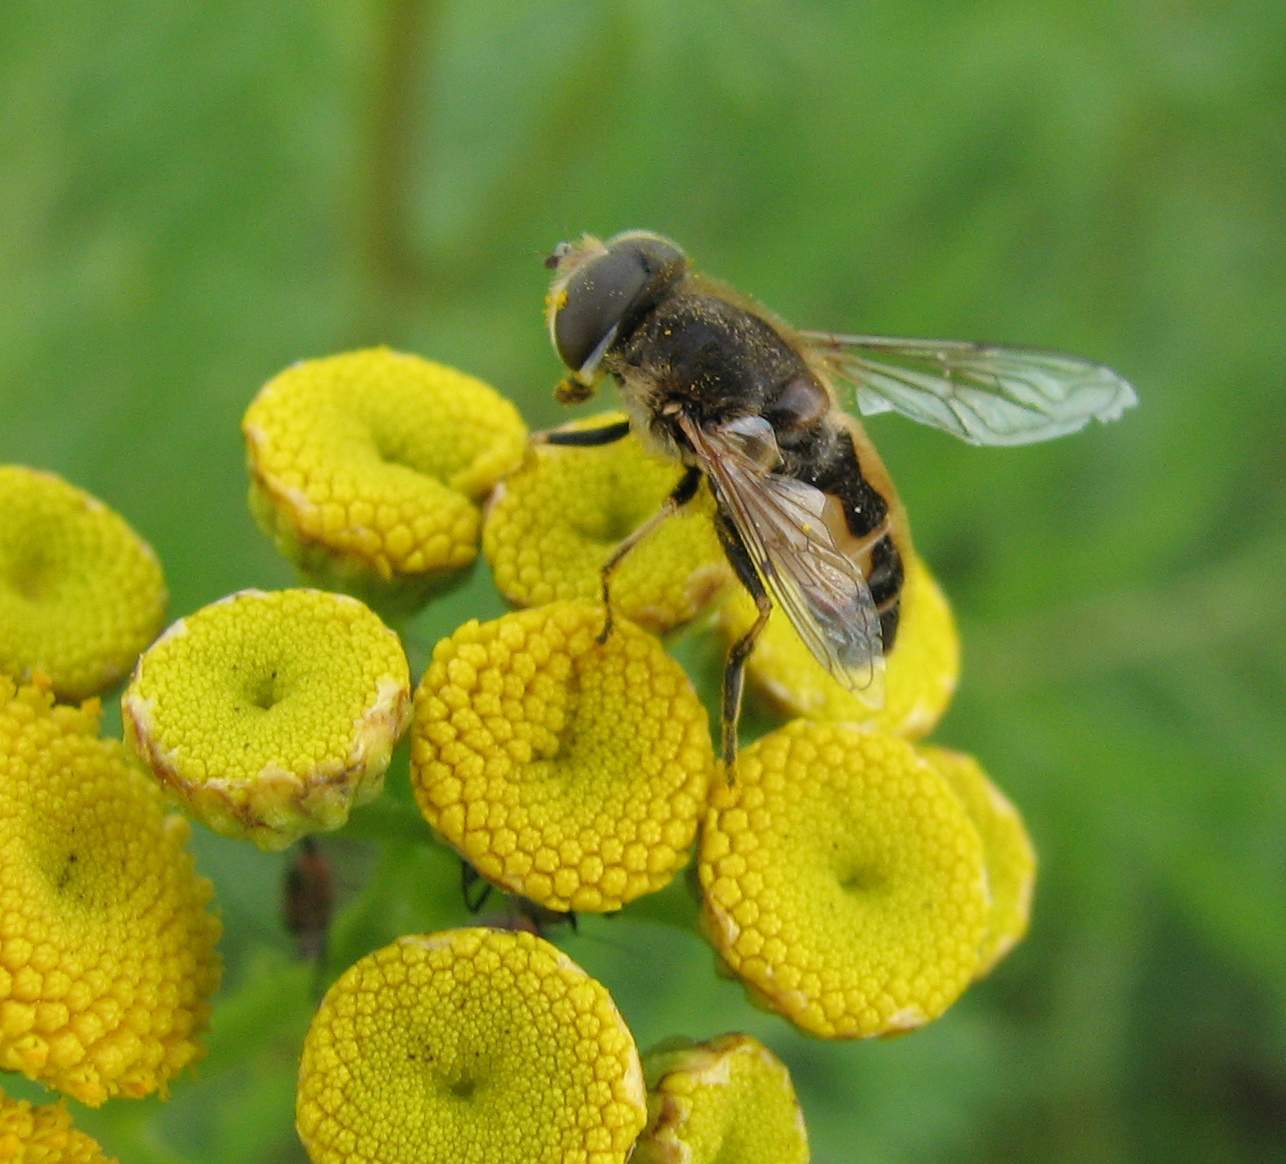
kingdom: Animalia
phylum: Arthropoda
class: Insecta
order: Diptera
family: Syrphidae
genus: Eristalis
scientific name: Eristalis arbustorum
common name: Hover fly
